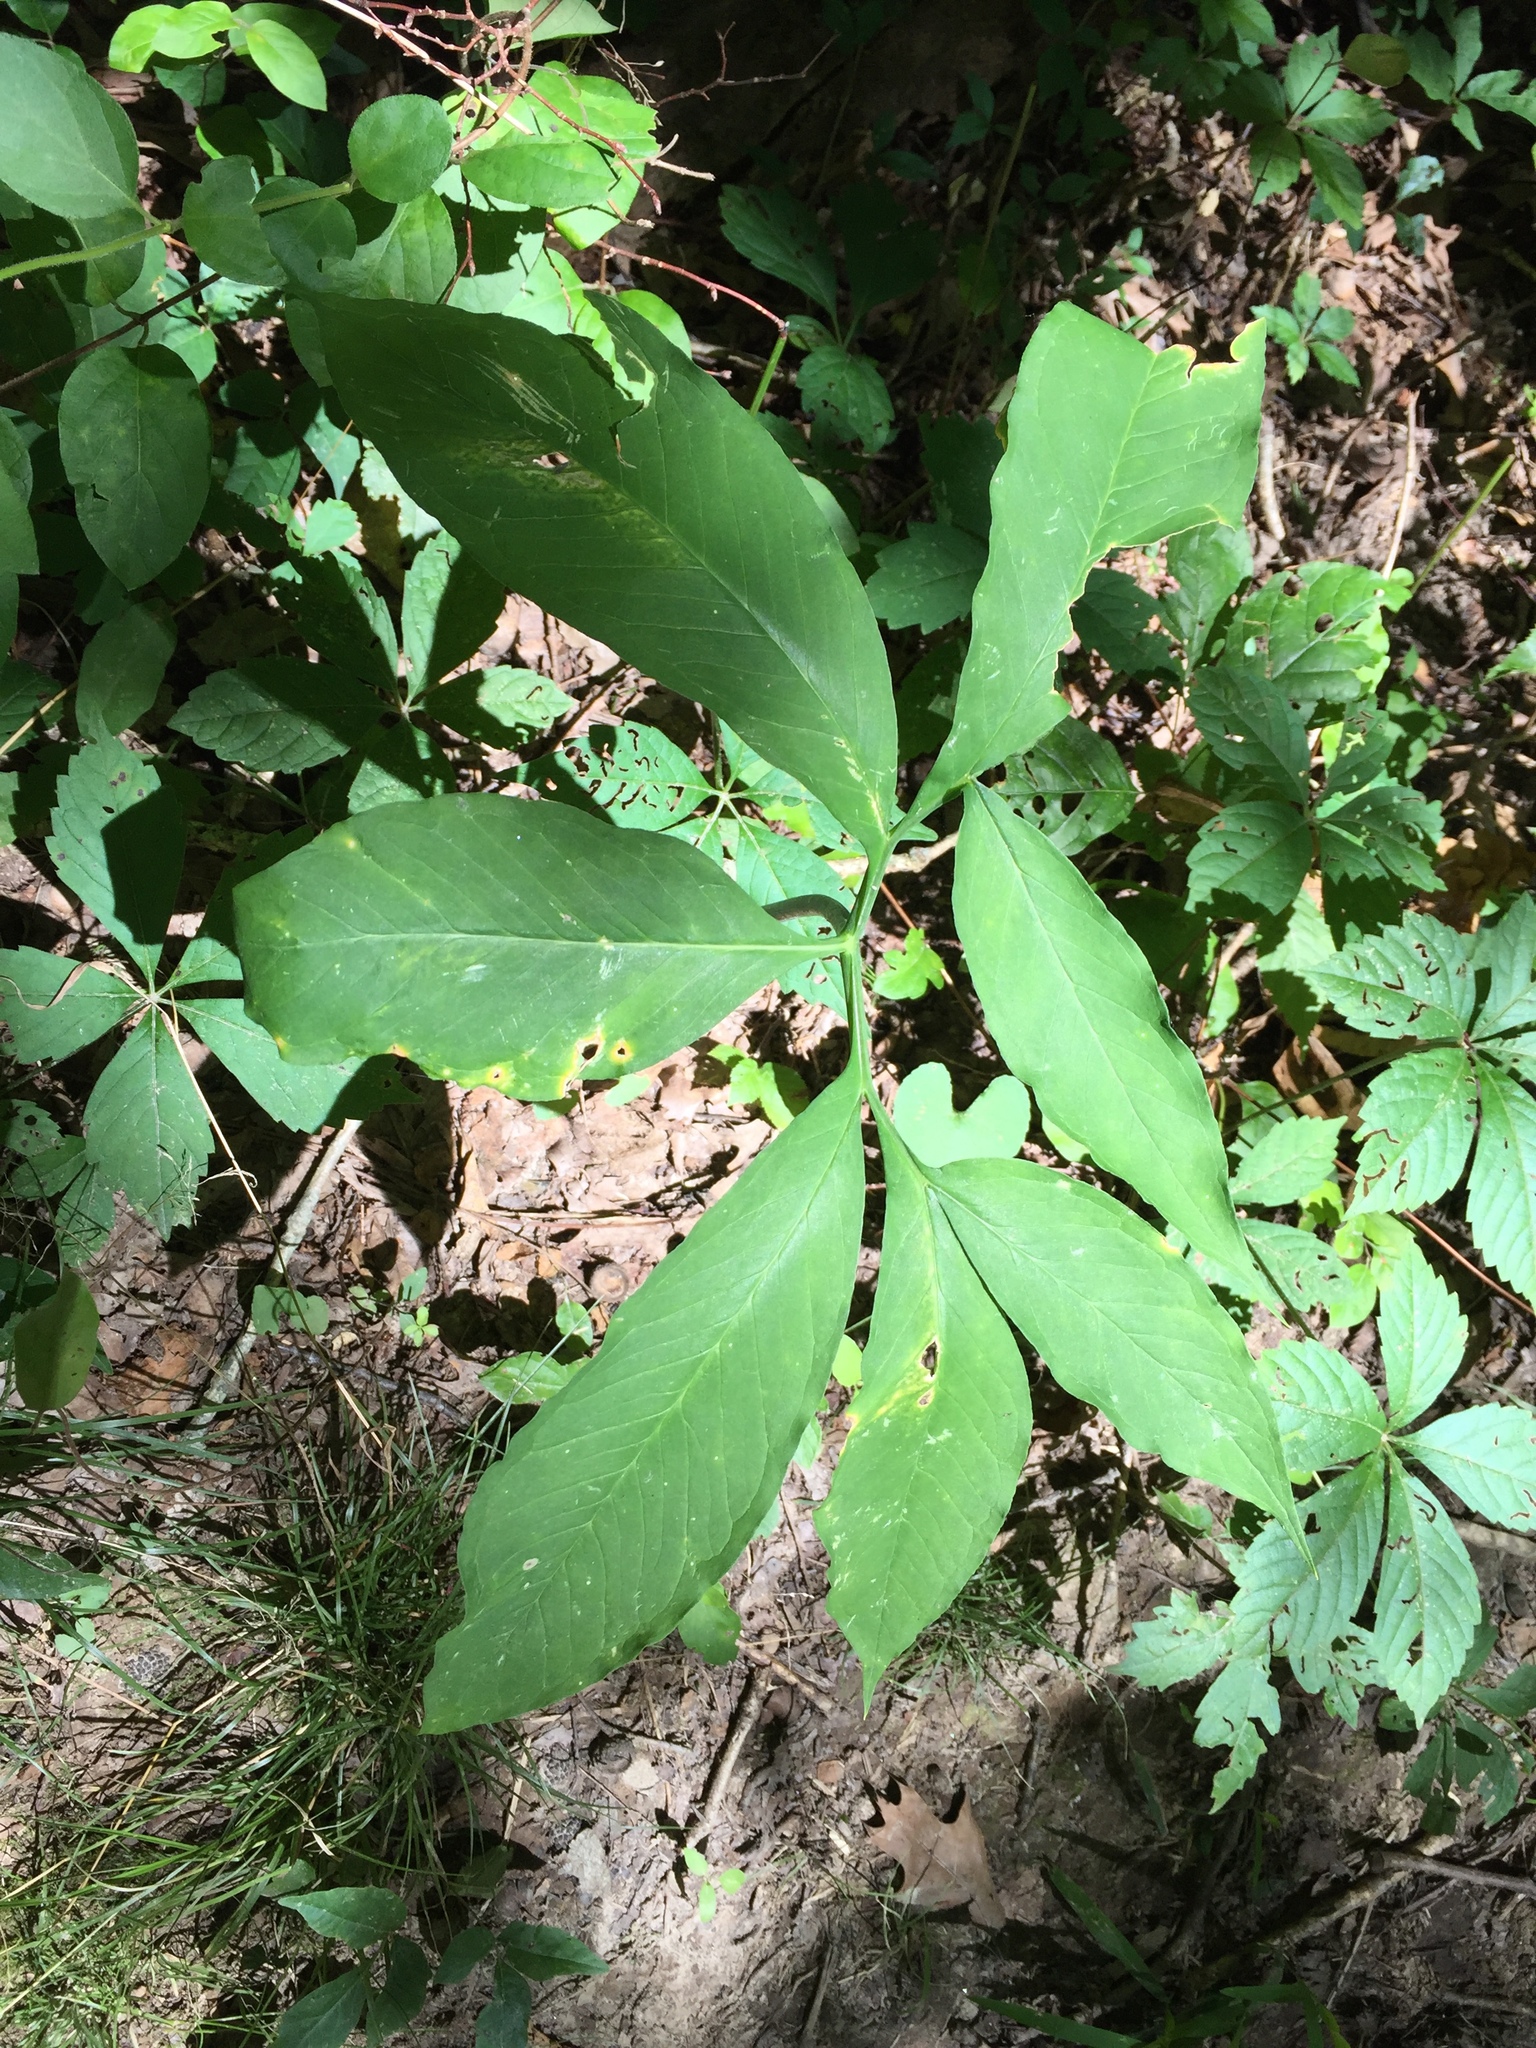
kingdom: Plantae
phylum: Tracheophyta
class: Liliopsida
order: Alismatales
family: Araceae
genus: Arisaema
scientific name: Arisaema dracontium
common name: Dragon-arum
